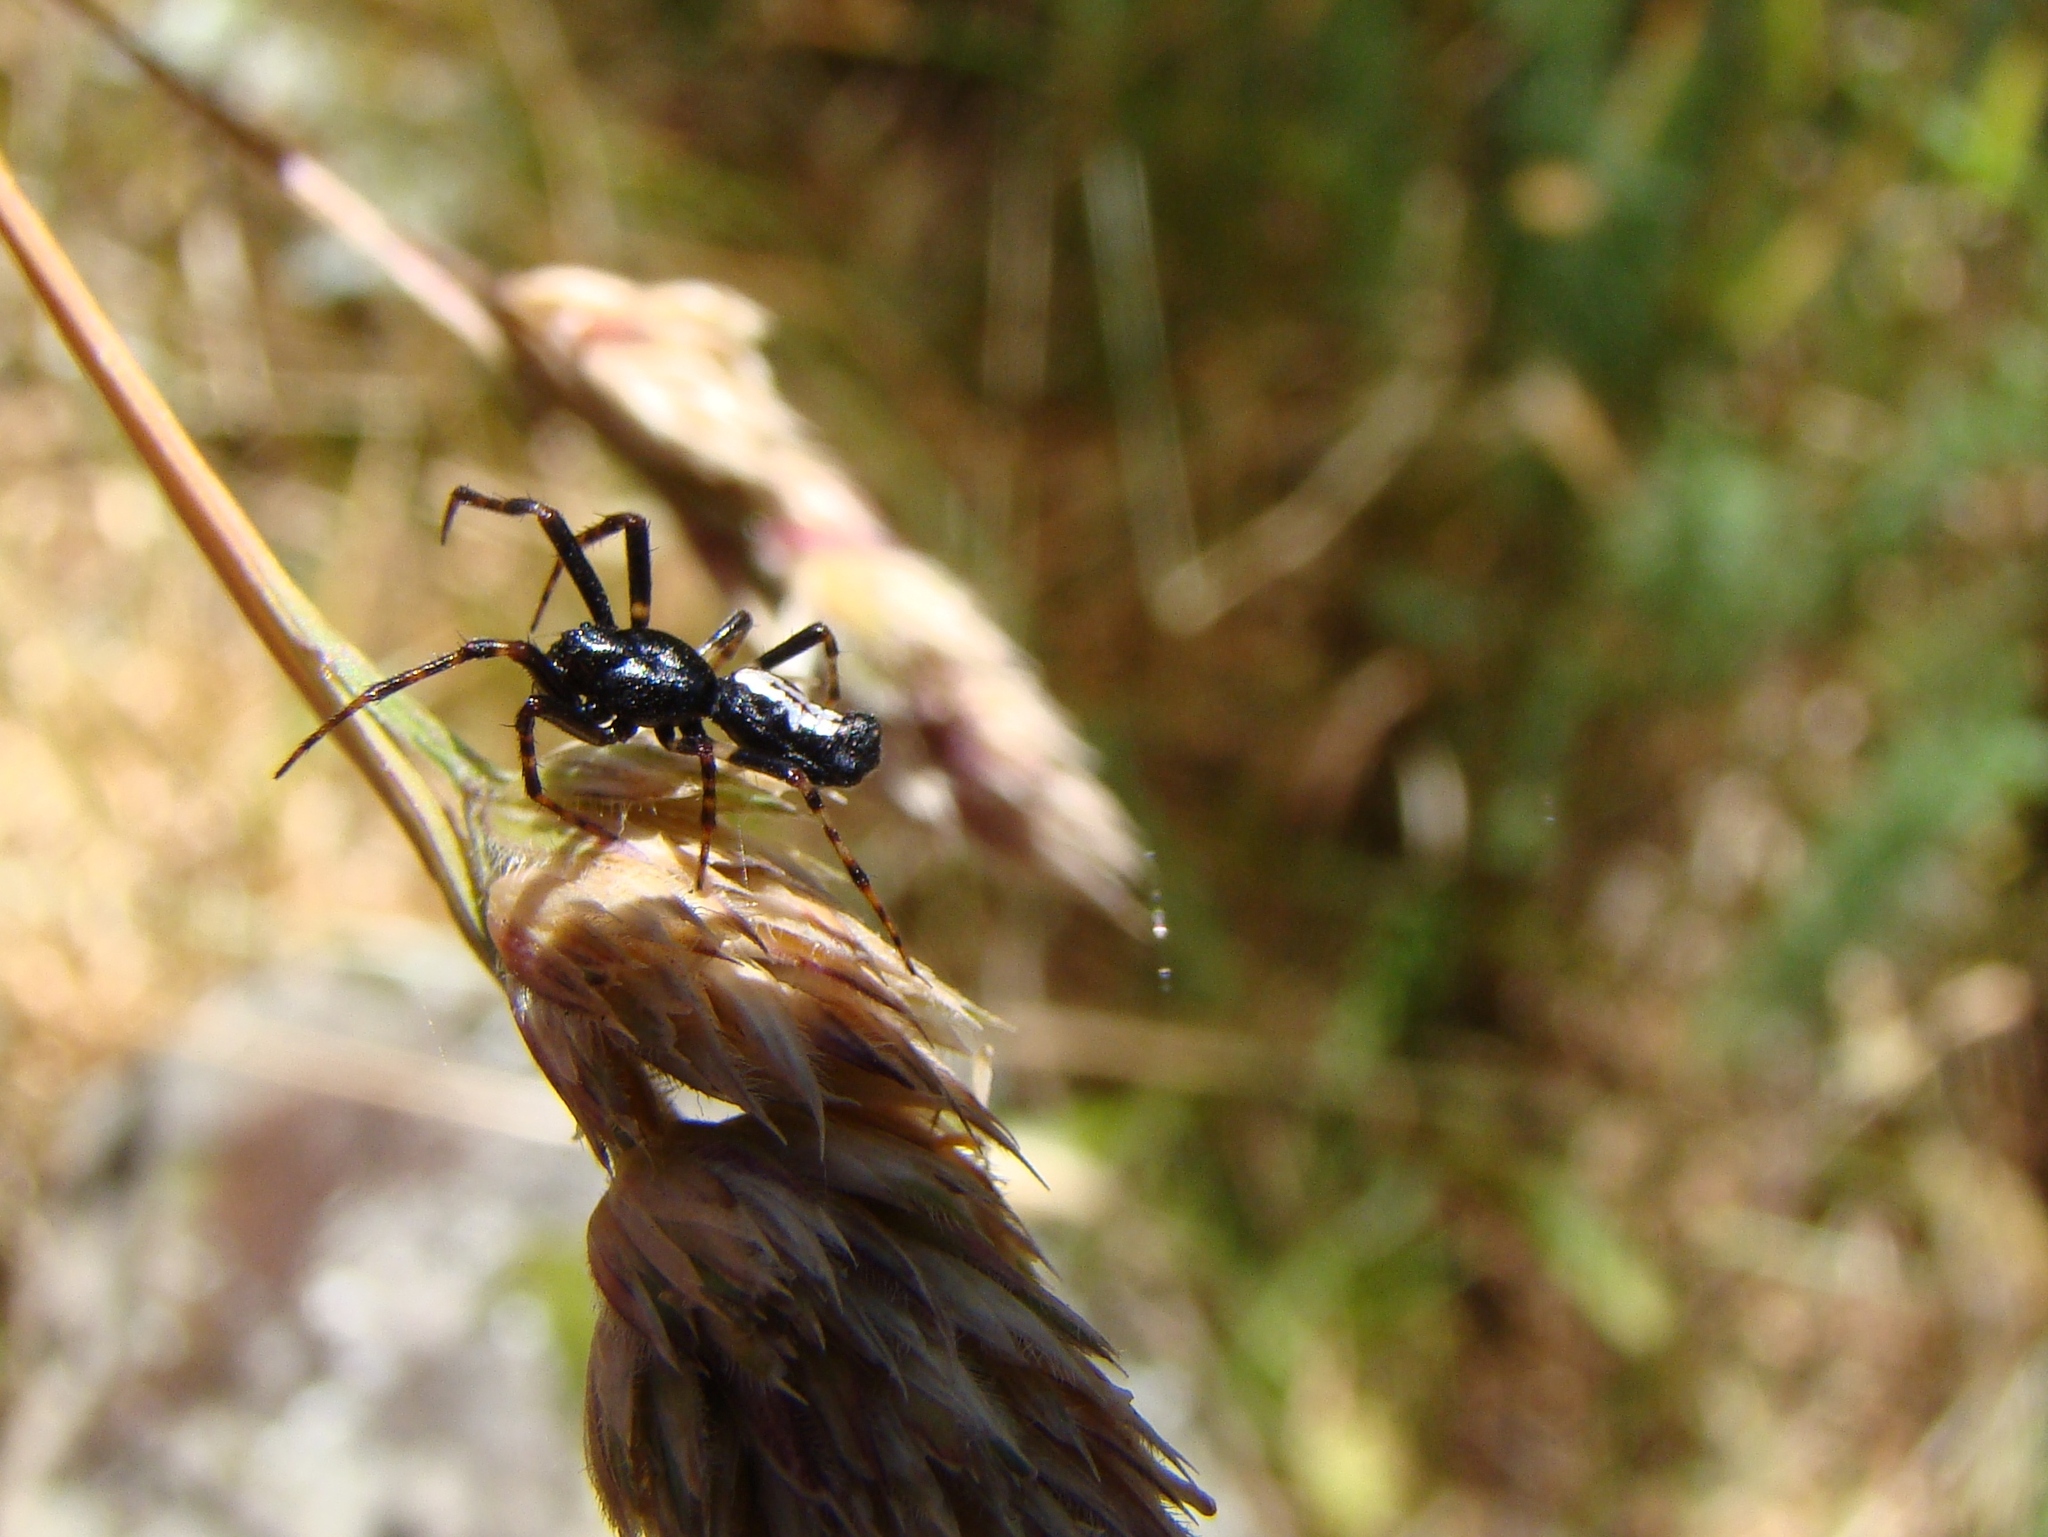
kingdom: Animalia
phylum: Arthropoda
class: Arachnida
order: Araneae
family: Araneidae
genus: Cyclosa
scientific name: Cyclosa trilobata
